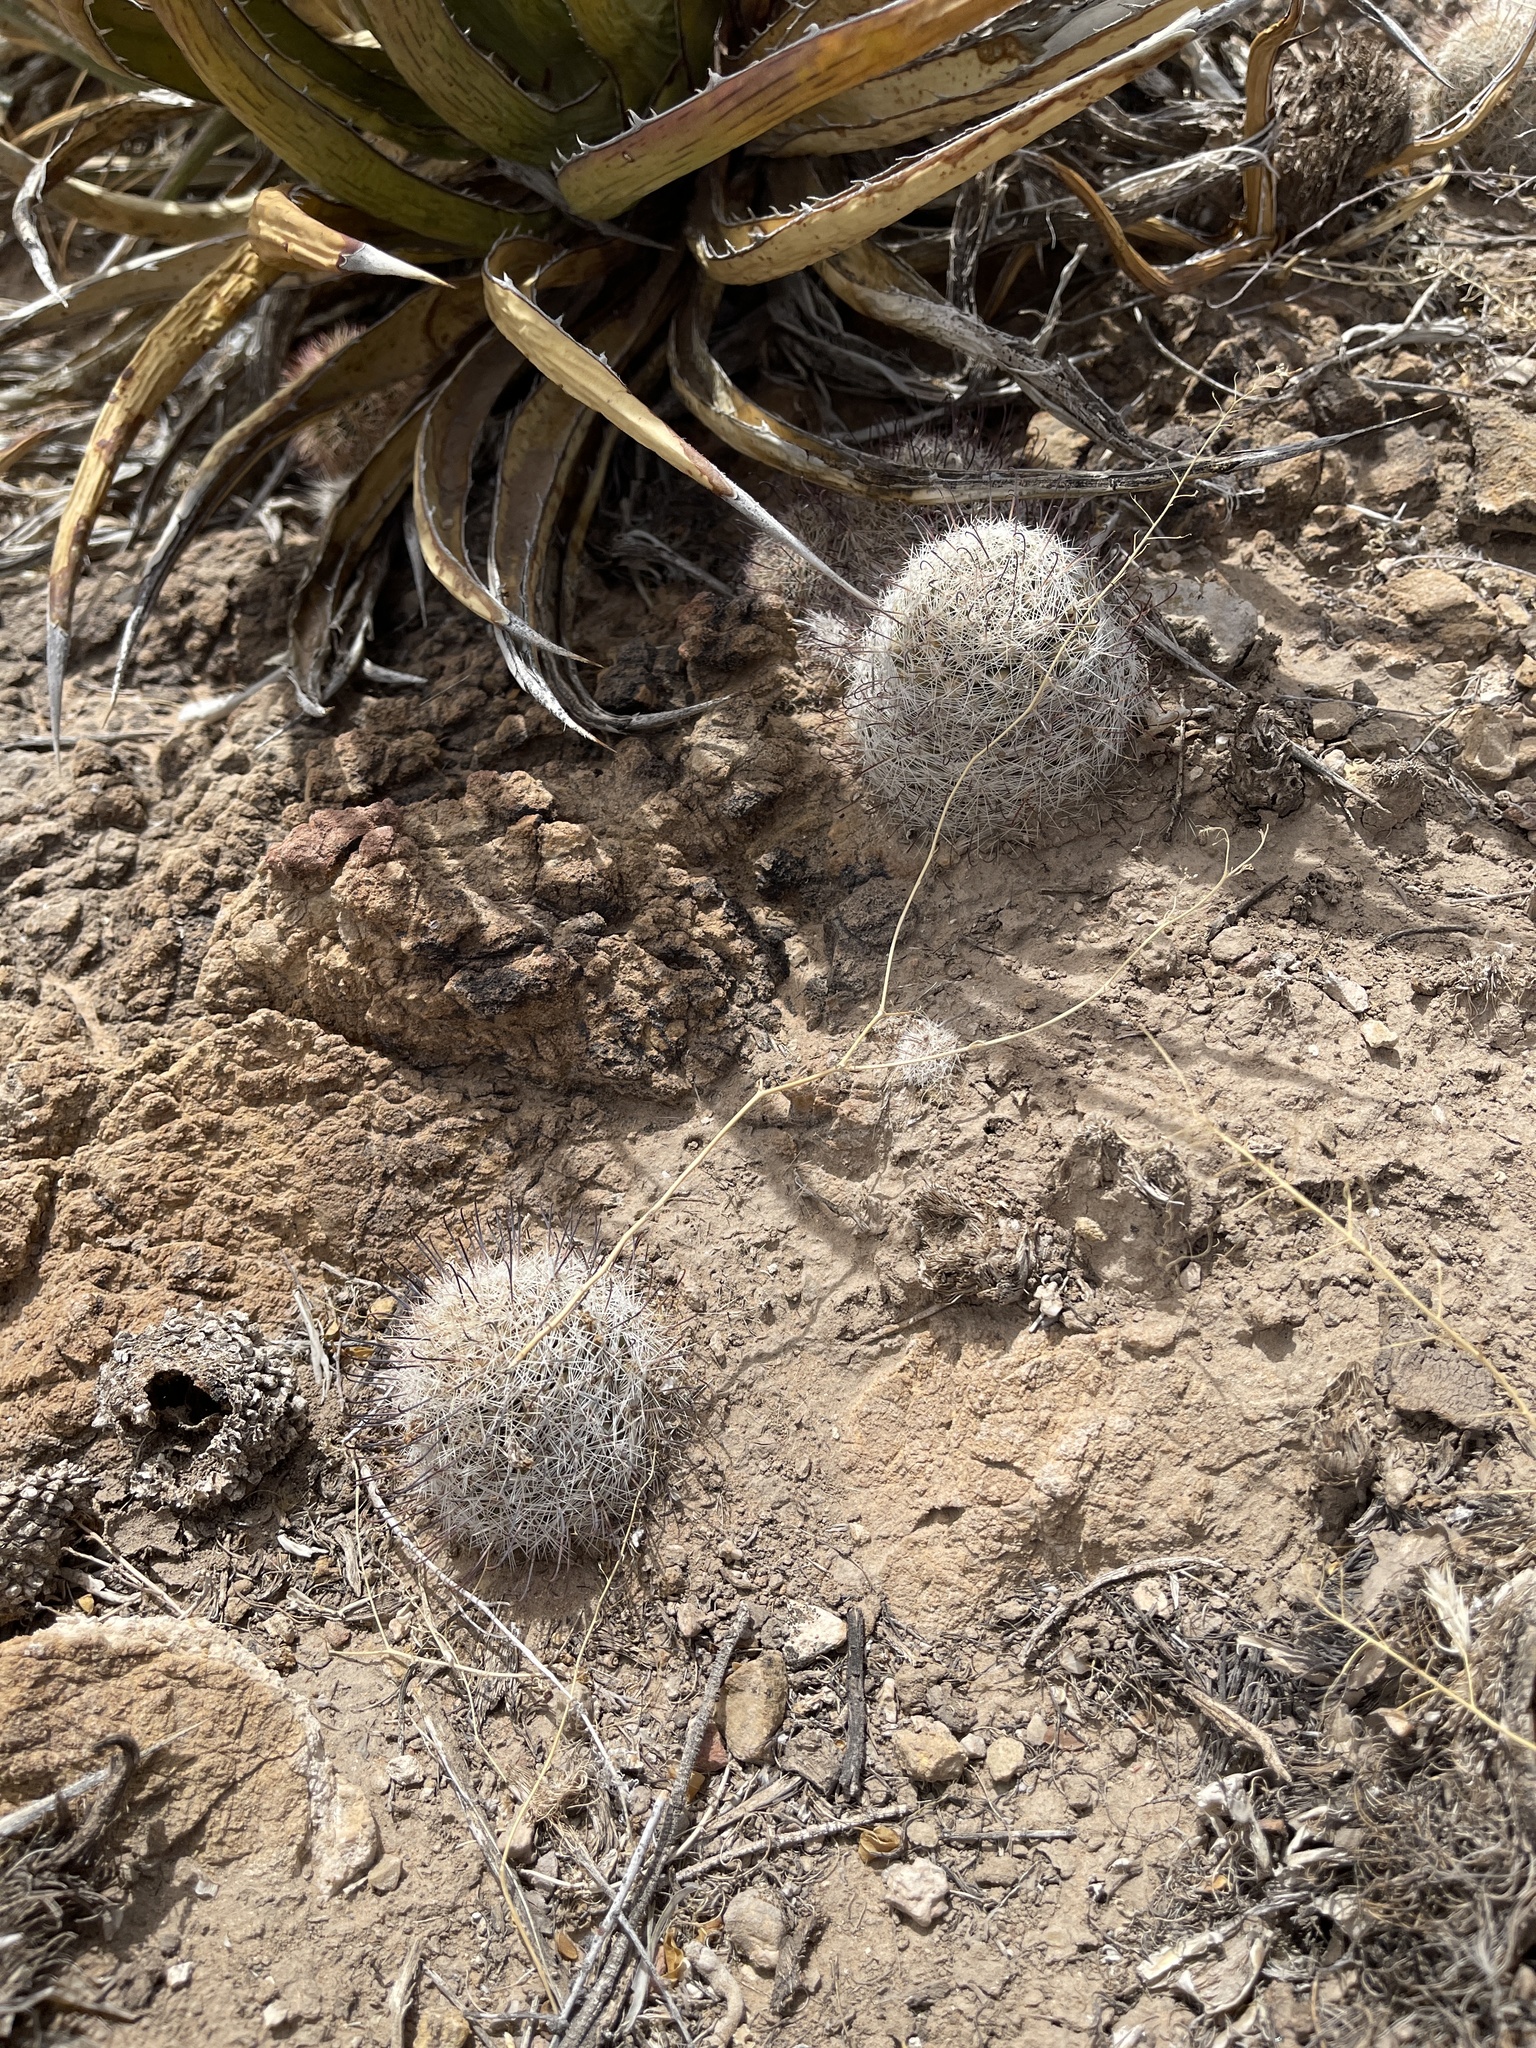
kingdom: Plantae
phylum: Tracheophyta
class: Magnoliopsida
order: Caryophyllales
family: Cactaceae
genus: Cochemiea
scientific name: Cochemiea grahamii
